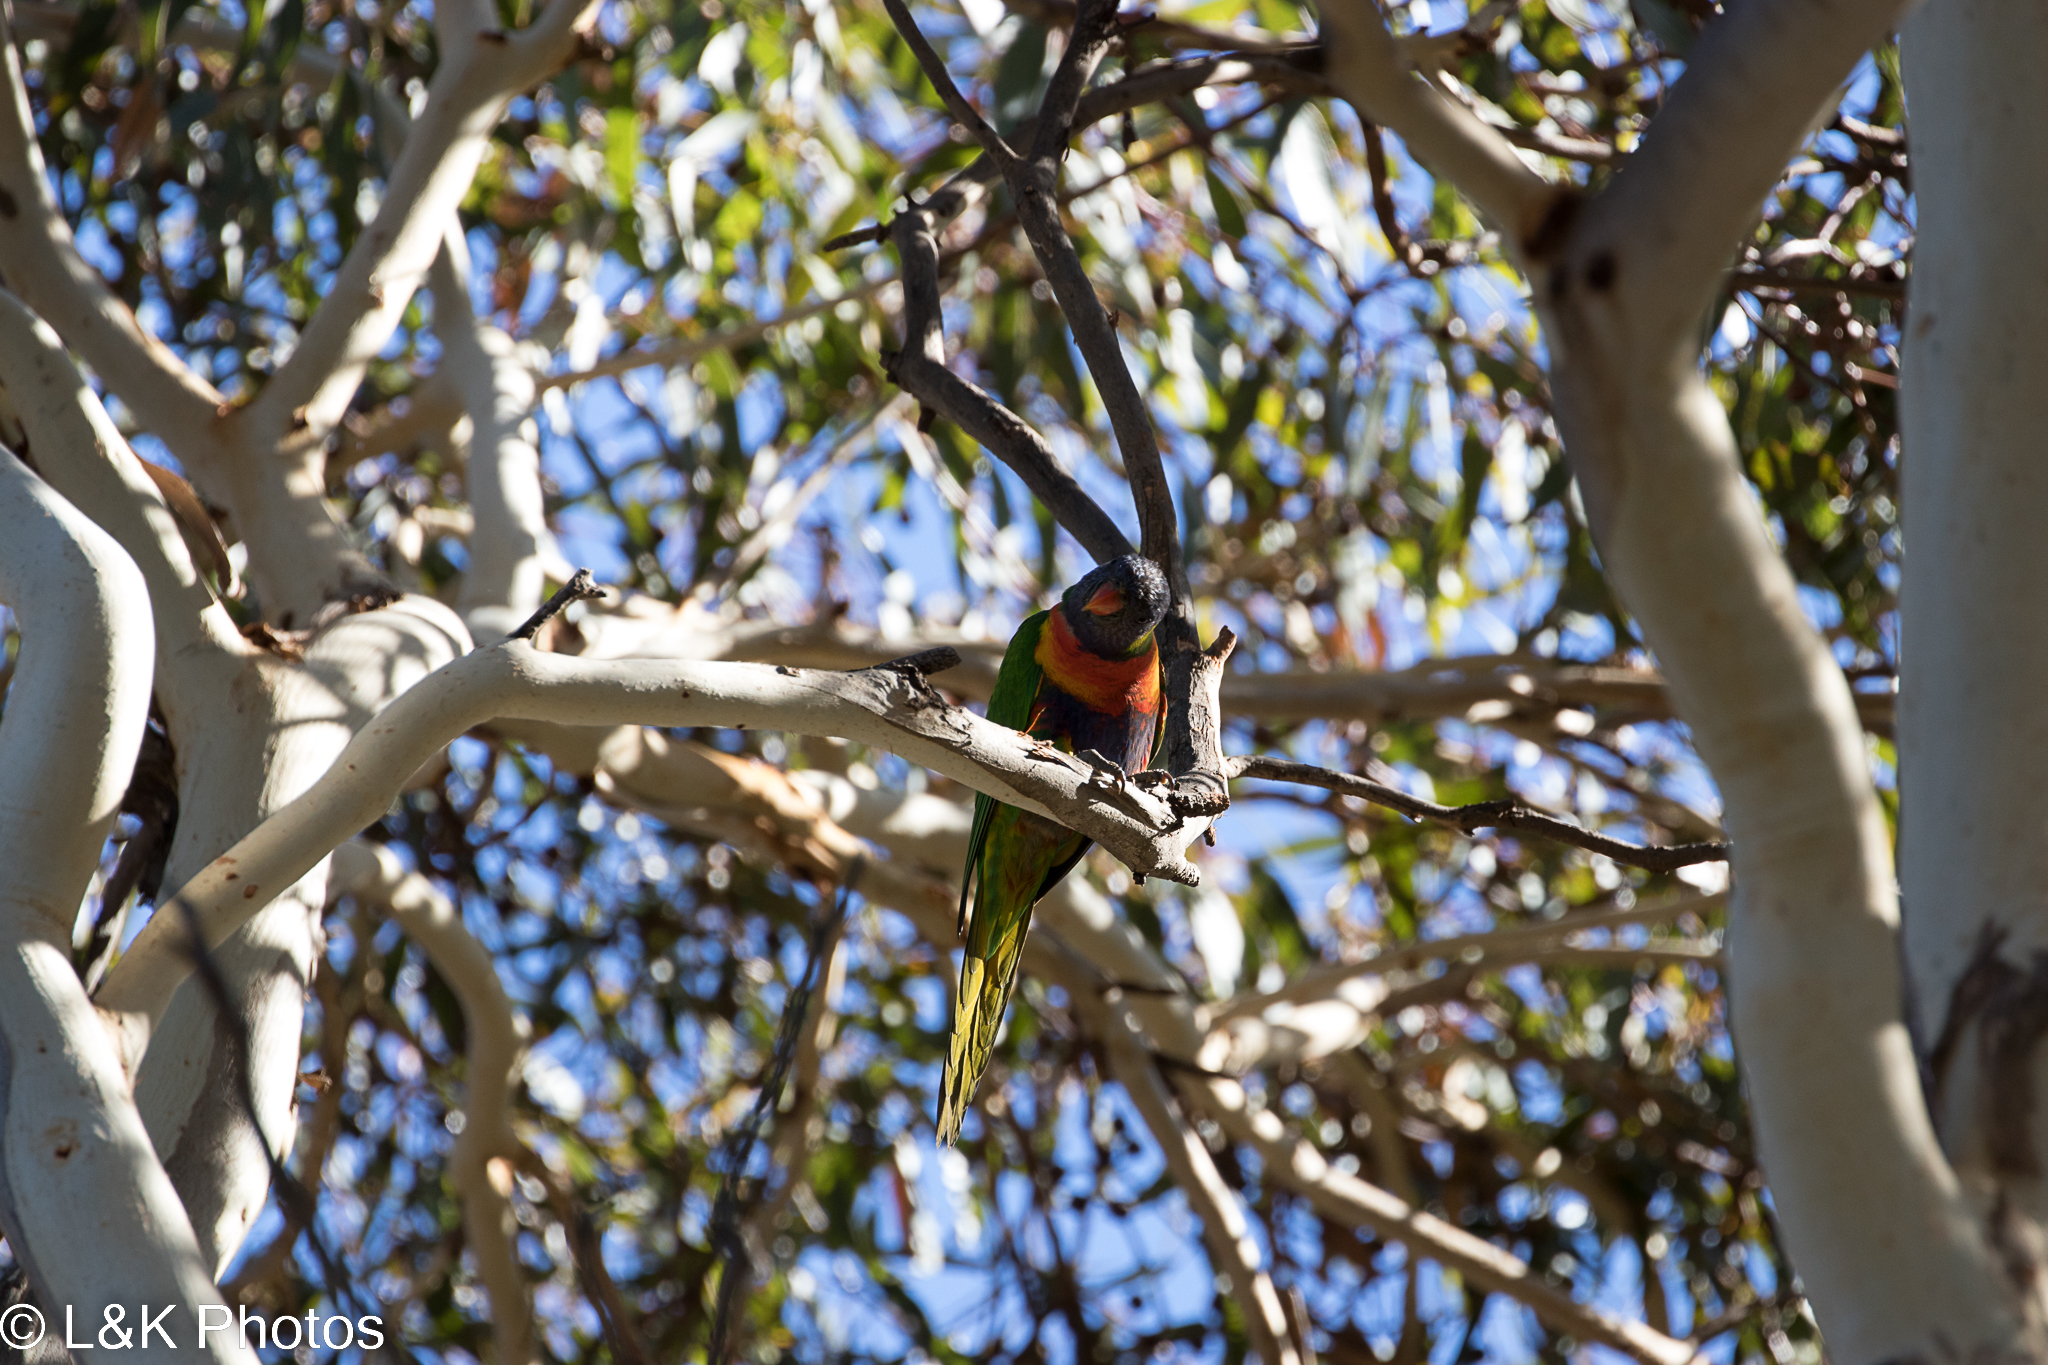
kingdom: Animalia
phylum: Chordata
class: Aves
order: Psittaciformes
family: Psittacidae
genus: Trichoglossus
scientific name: Trichoglossus haematodus
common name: Coconut lorikeet
